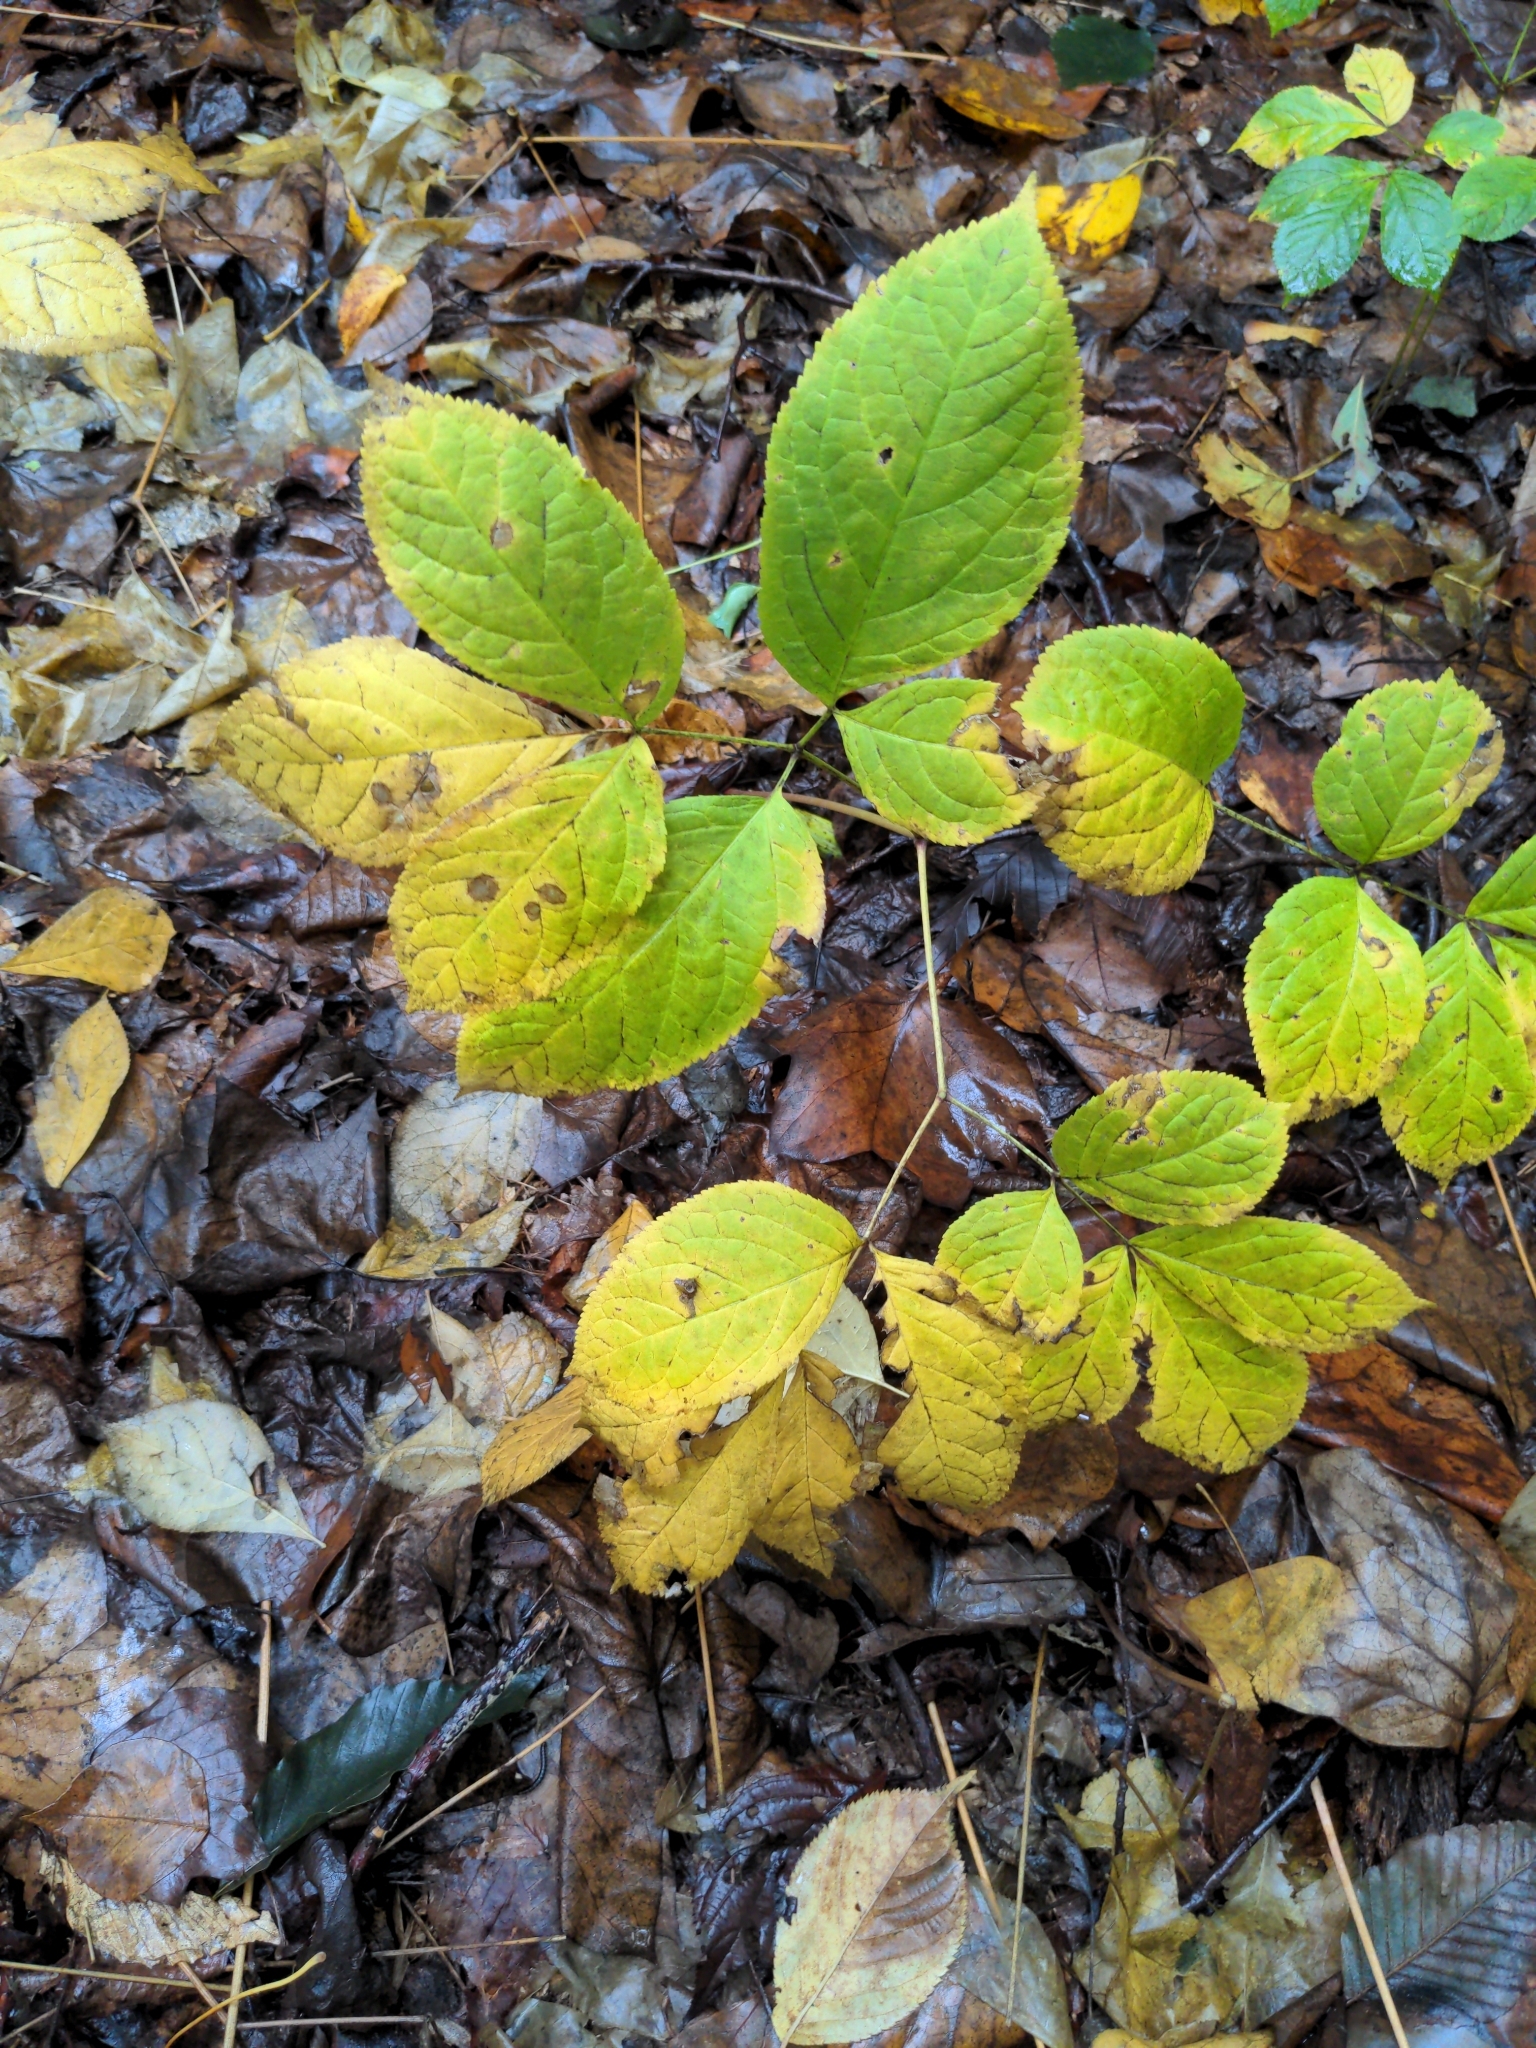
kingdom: Plantae
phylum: Tracheophyta
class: Magnoliopsida
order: Apiales
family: Araliaceae
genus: Aralia
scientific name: Aralia nudicaulis
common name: Wild sarsaparilla
